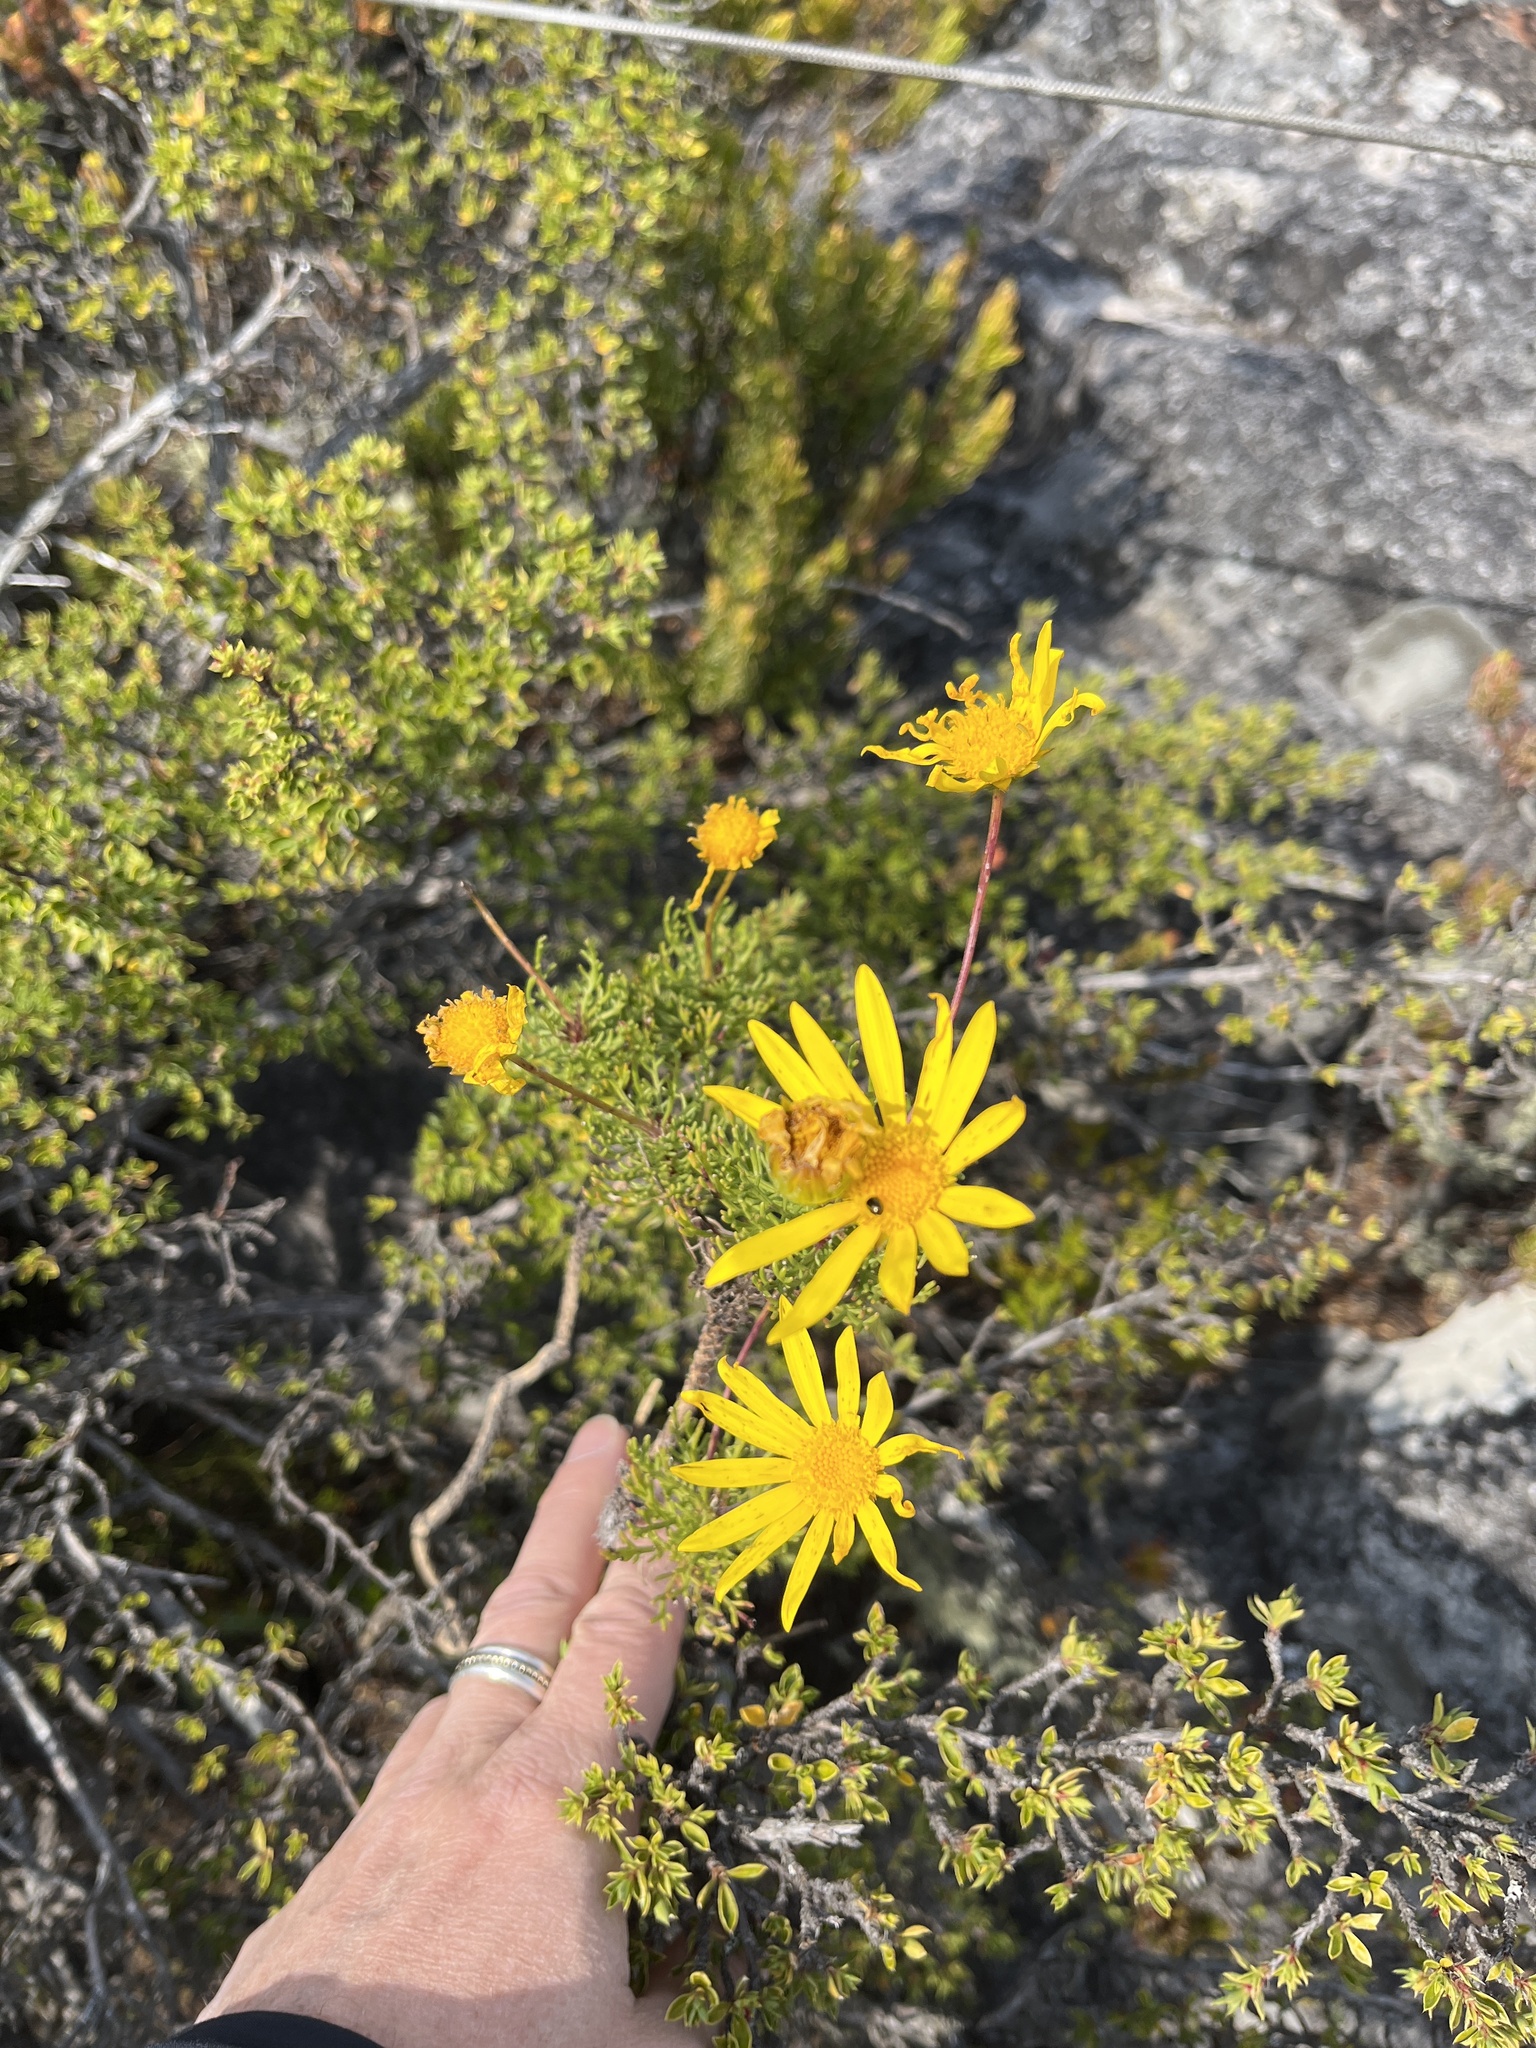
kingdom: Plantae
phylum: Tracheophyta
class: Magnoliopsida
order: Asterales
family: Asteraceae
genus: Euryops
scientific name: Euryops abrotanifolius
